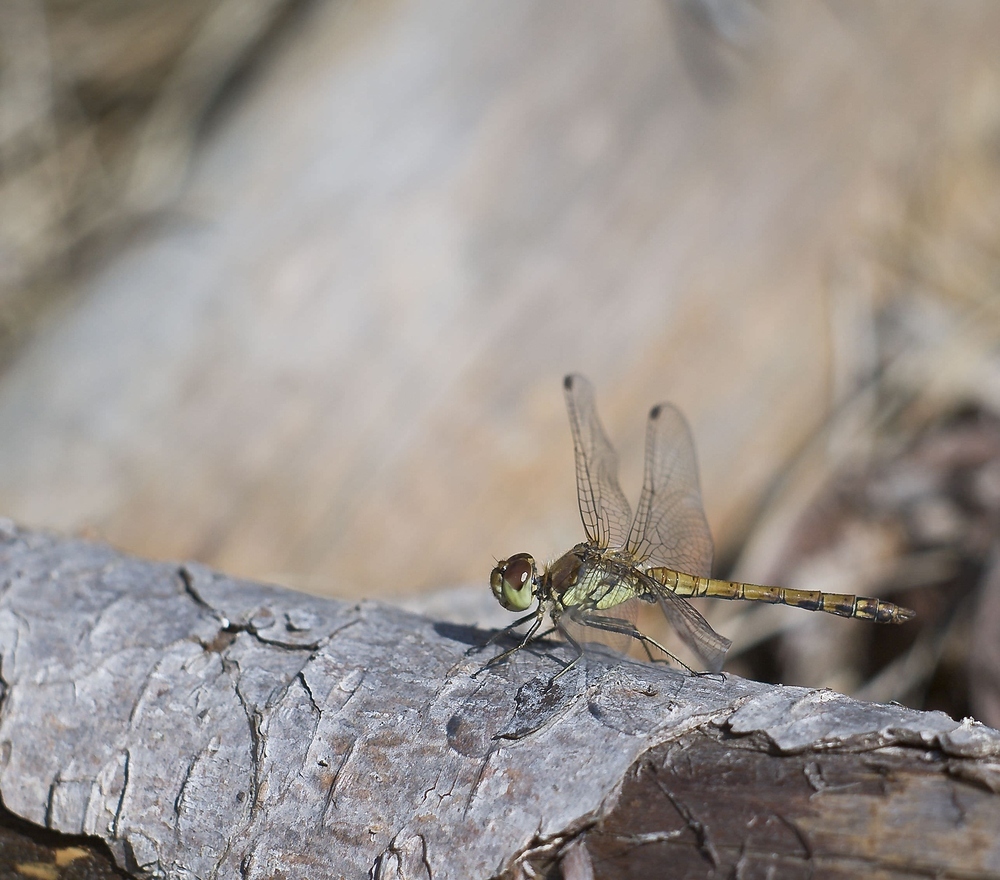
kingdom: Animalia
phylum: Arthropoda
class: Insecta
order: Odonata
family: Libellulidae
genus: Sympetrum
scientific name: Sympetrum striolatum
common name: Common darter
